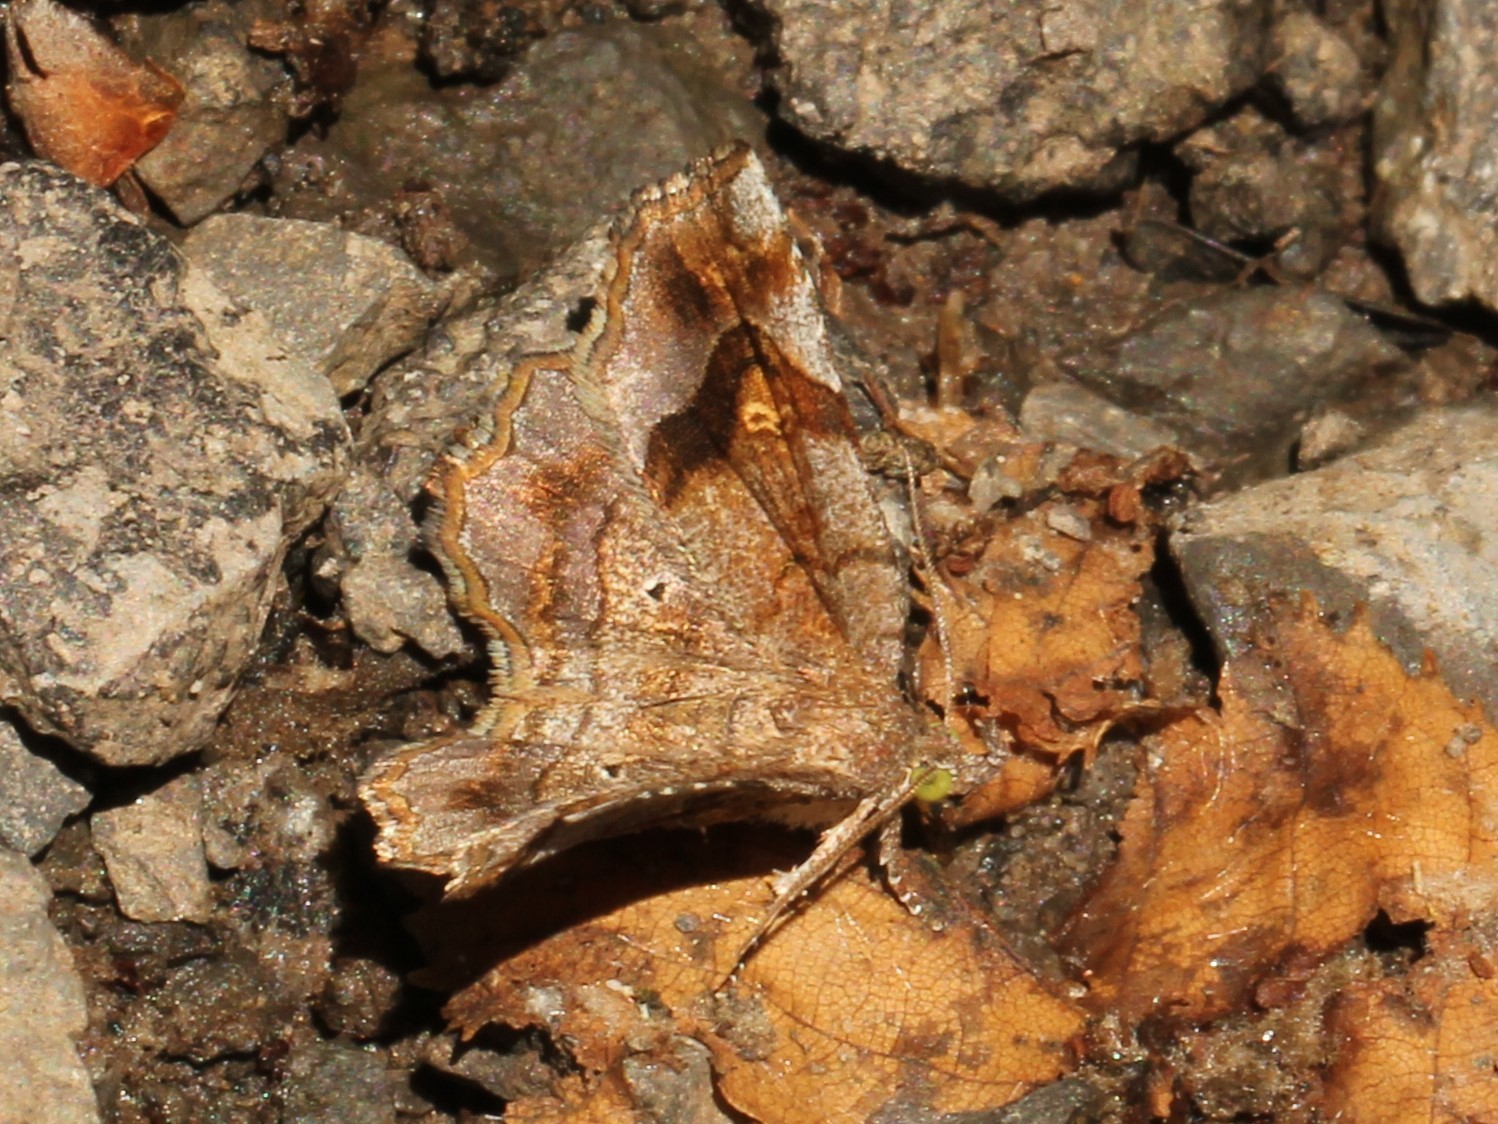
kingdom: Animalia
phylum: Arthropoda
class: Insecta
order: Lepidoptera
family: Erebidae
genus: Pangrapta
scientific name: Pangrapta decoralis
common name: Decorated owlet
